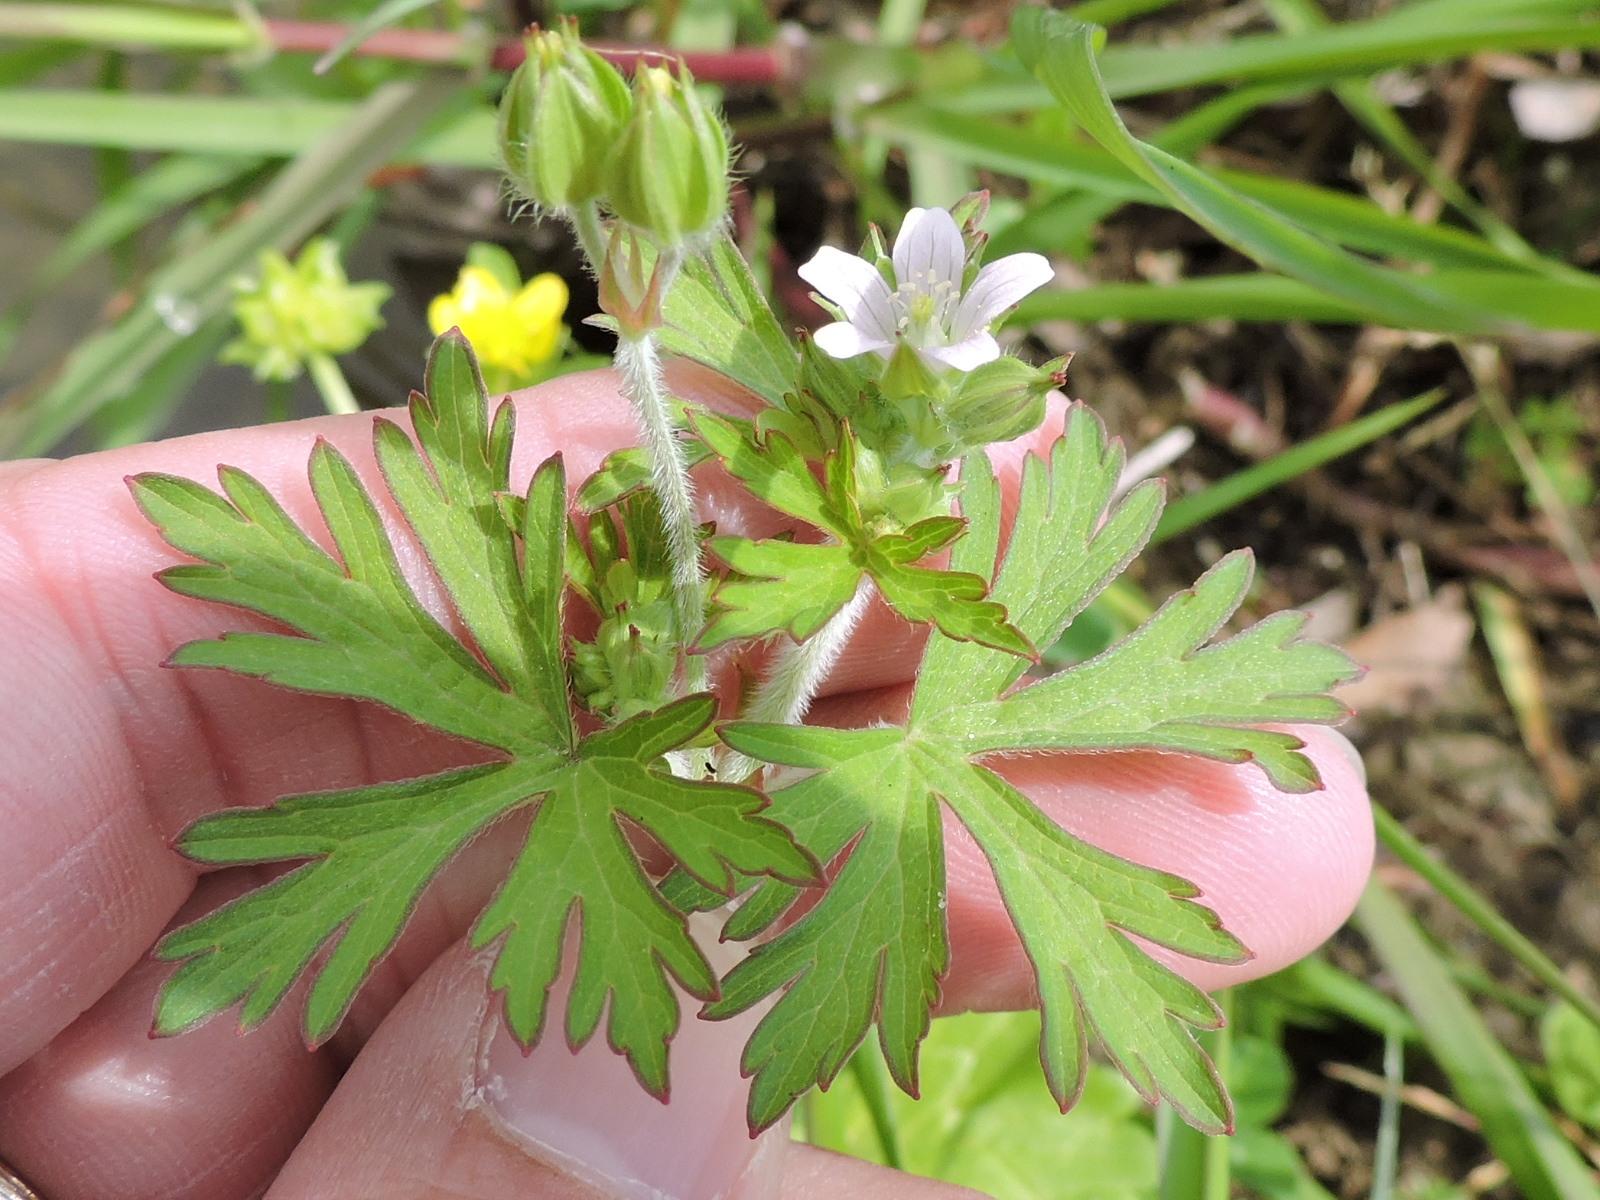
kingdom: Plantae
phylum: Tracheophyta
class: Magnoliopsida
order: Geraniales
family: Geraniaceae
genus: Geranium
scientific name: Geranium carolinianum
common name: Carolina crane's-bill
